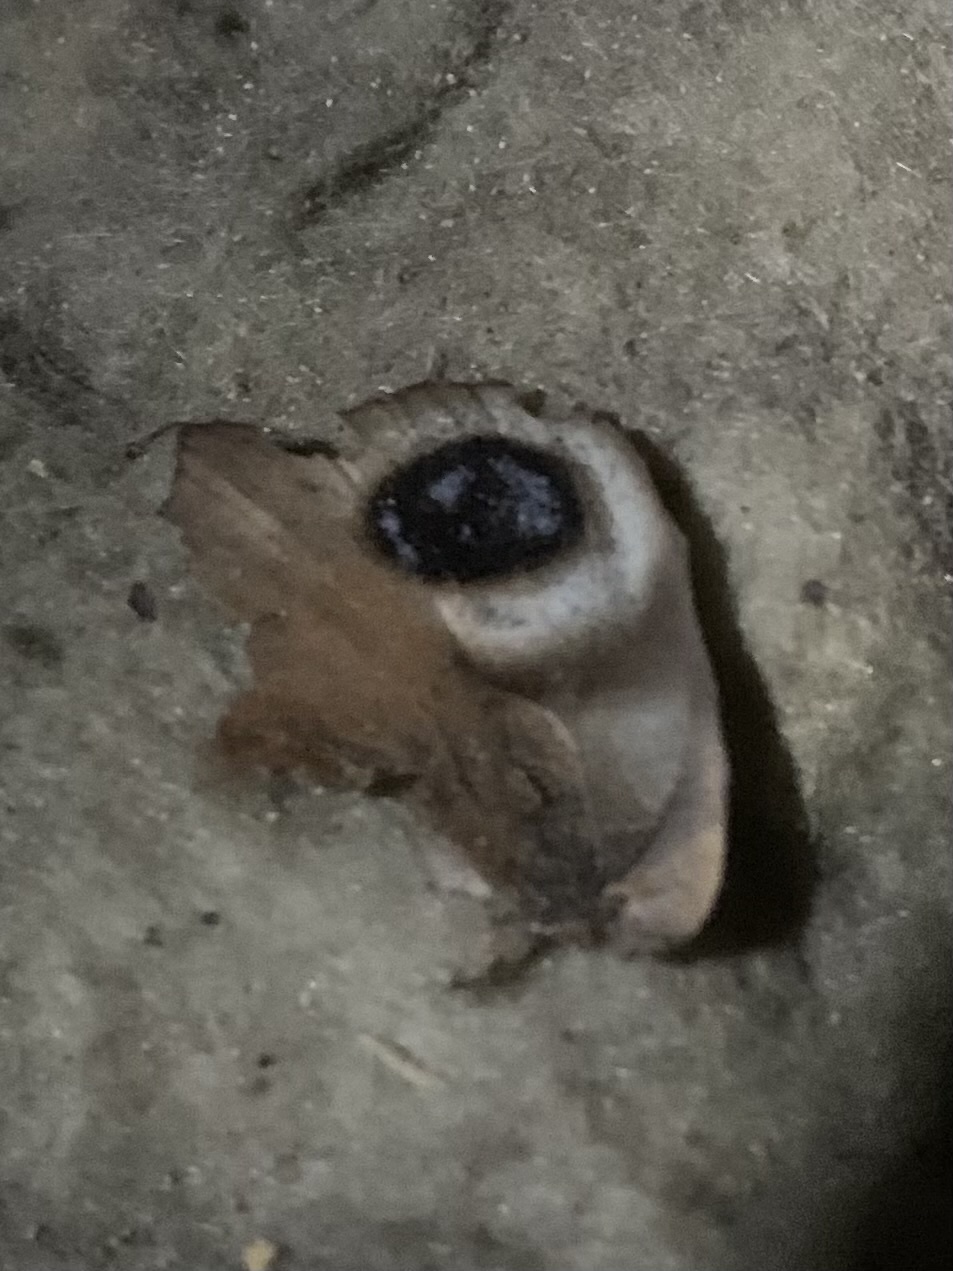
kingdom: Animalia
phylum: Arthropoda
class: Insecta
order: Lepidoptera
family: Nymphalidae
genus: Aglais
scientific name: Aglais io
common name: Peacock
